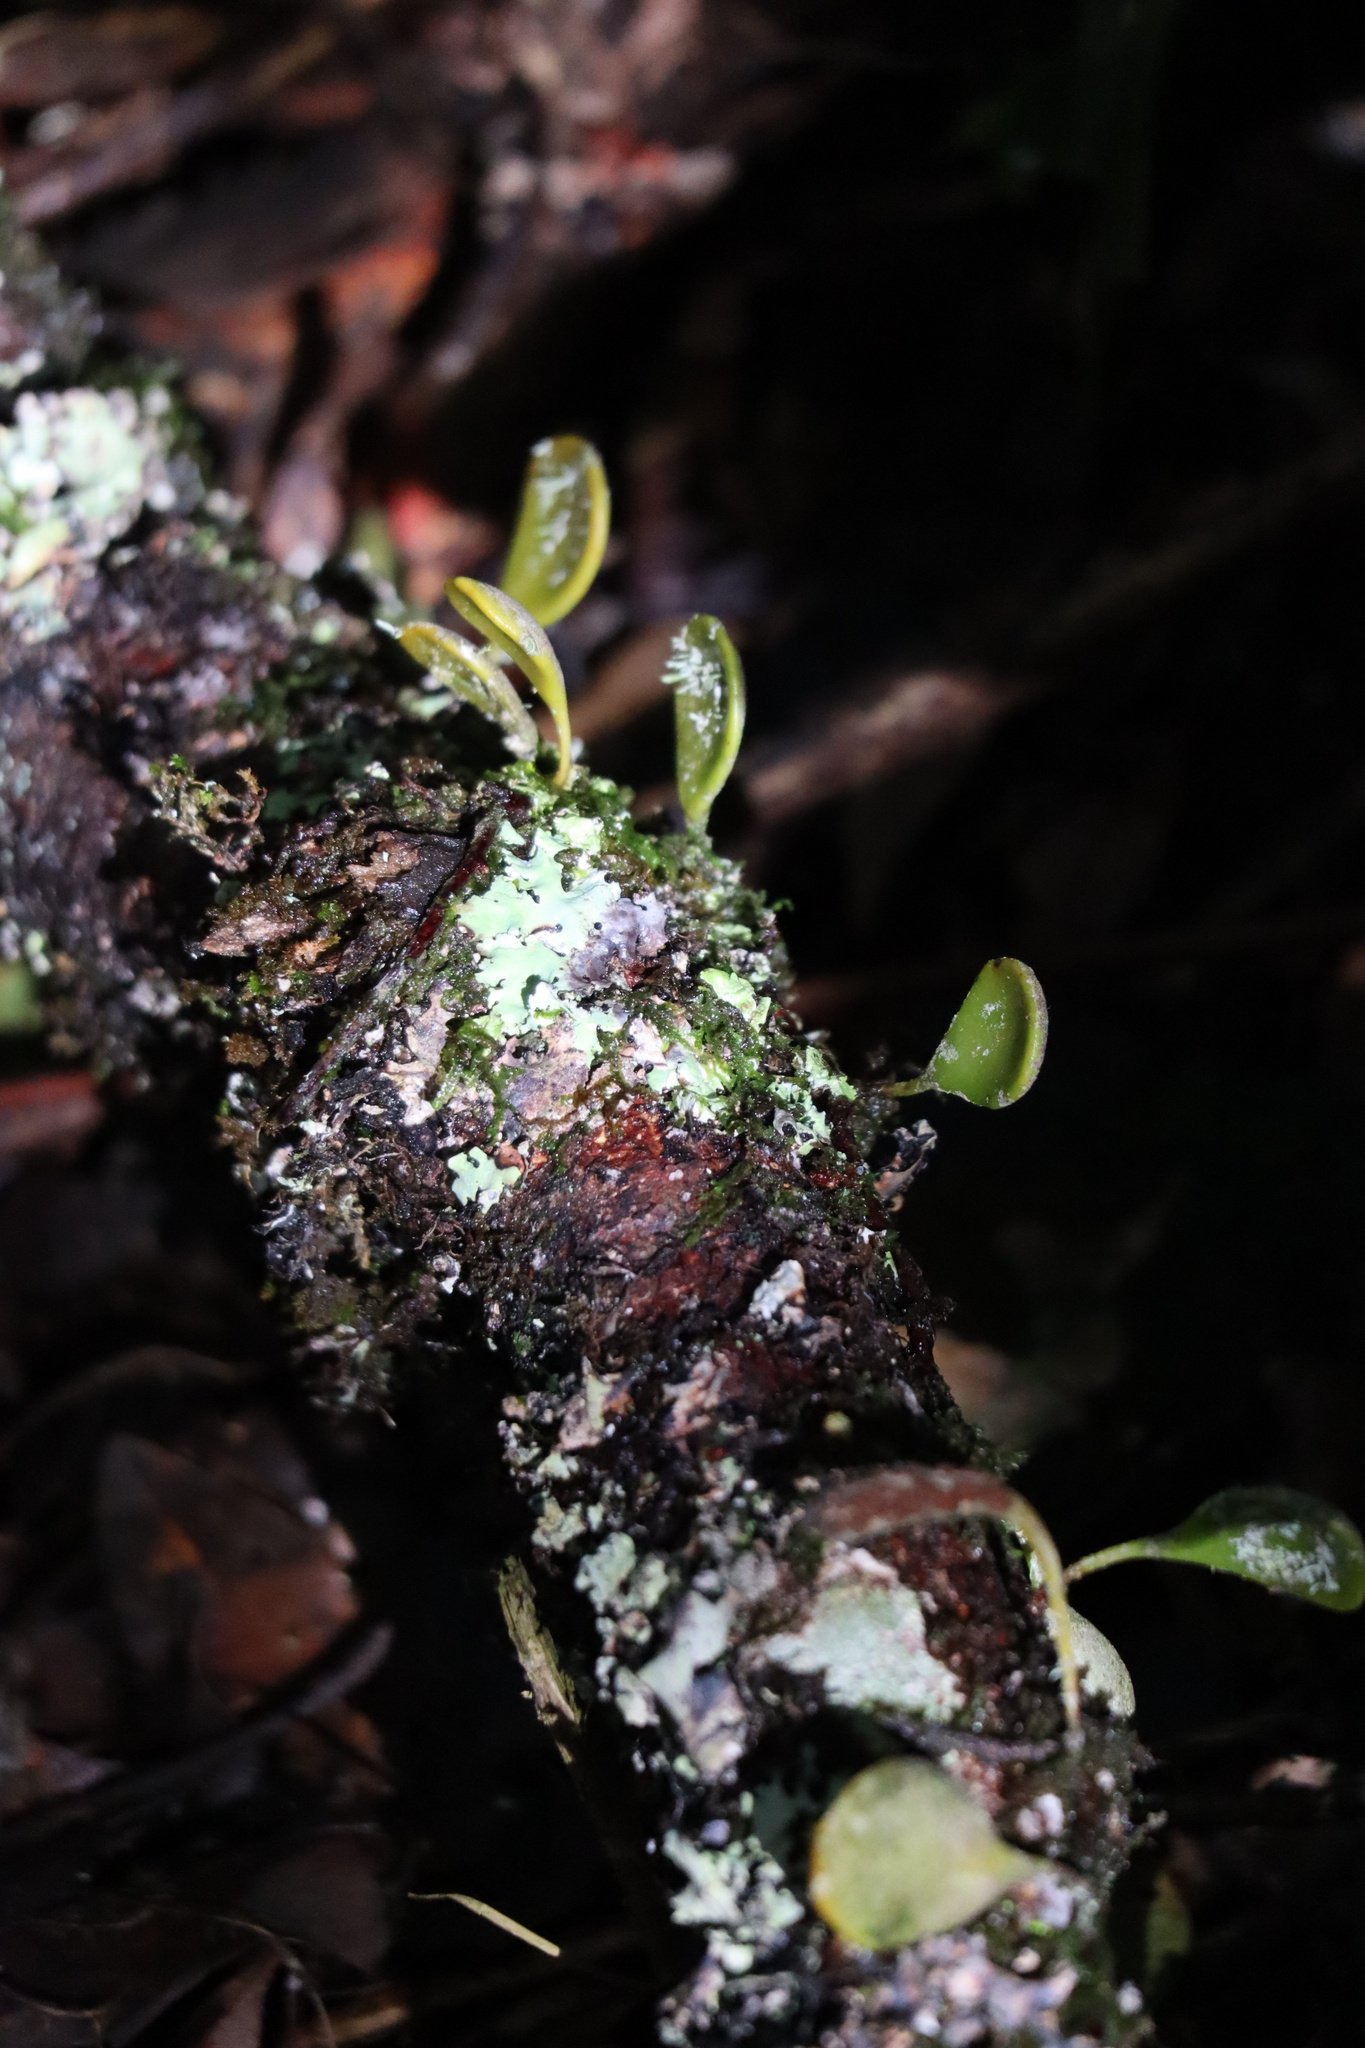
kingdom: Plantae
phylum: Tracheophyta
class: Polypodiopsida
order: Polypodiales
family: Polypodiaceae
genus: Pyrrosia
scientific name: Pyrrosia eleagnifolia
